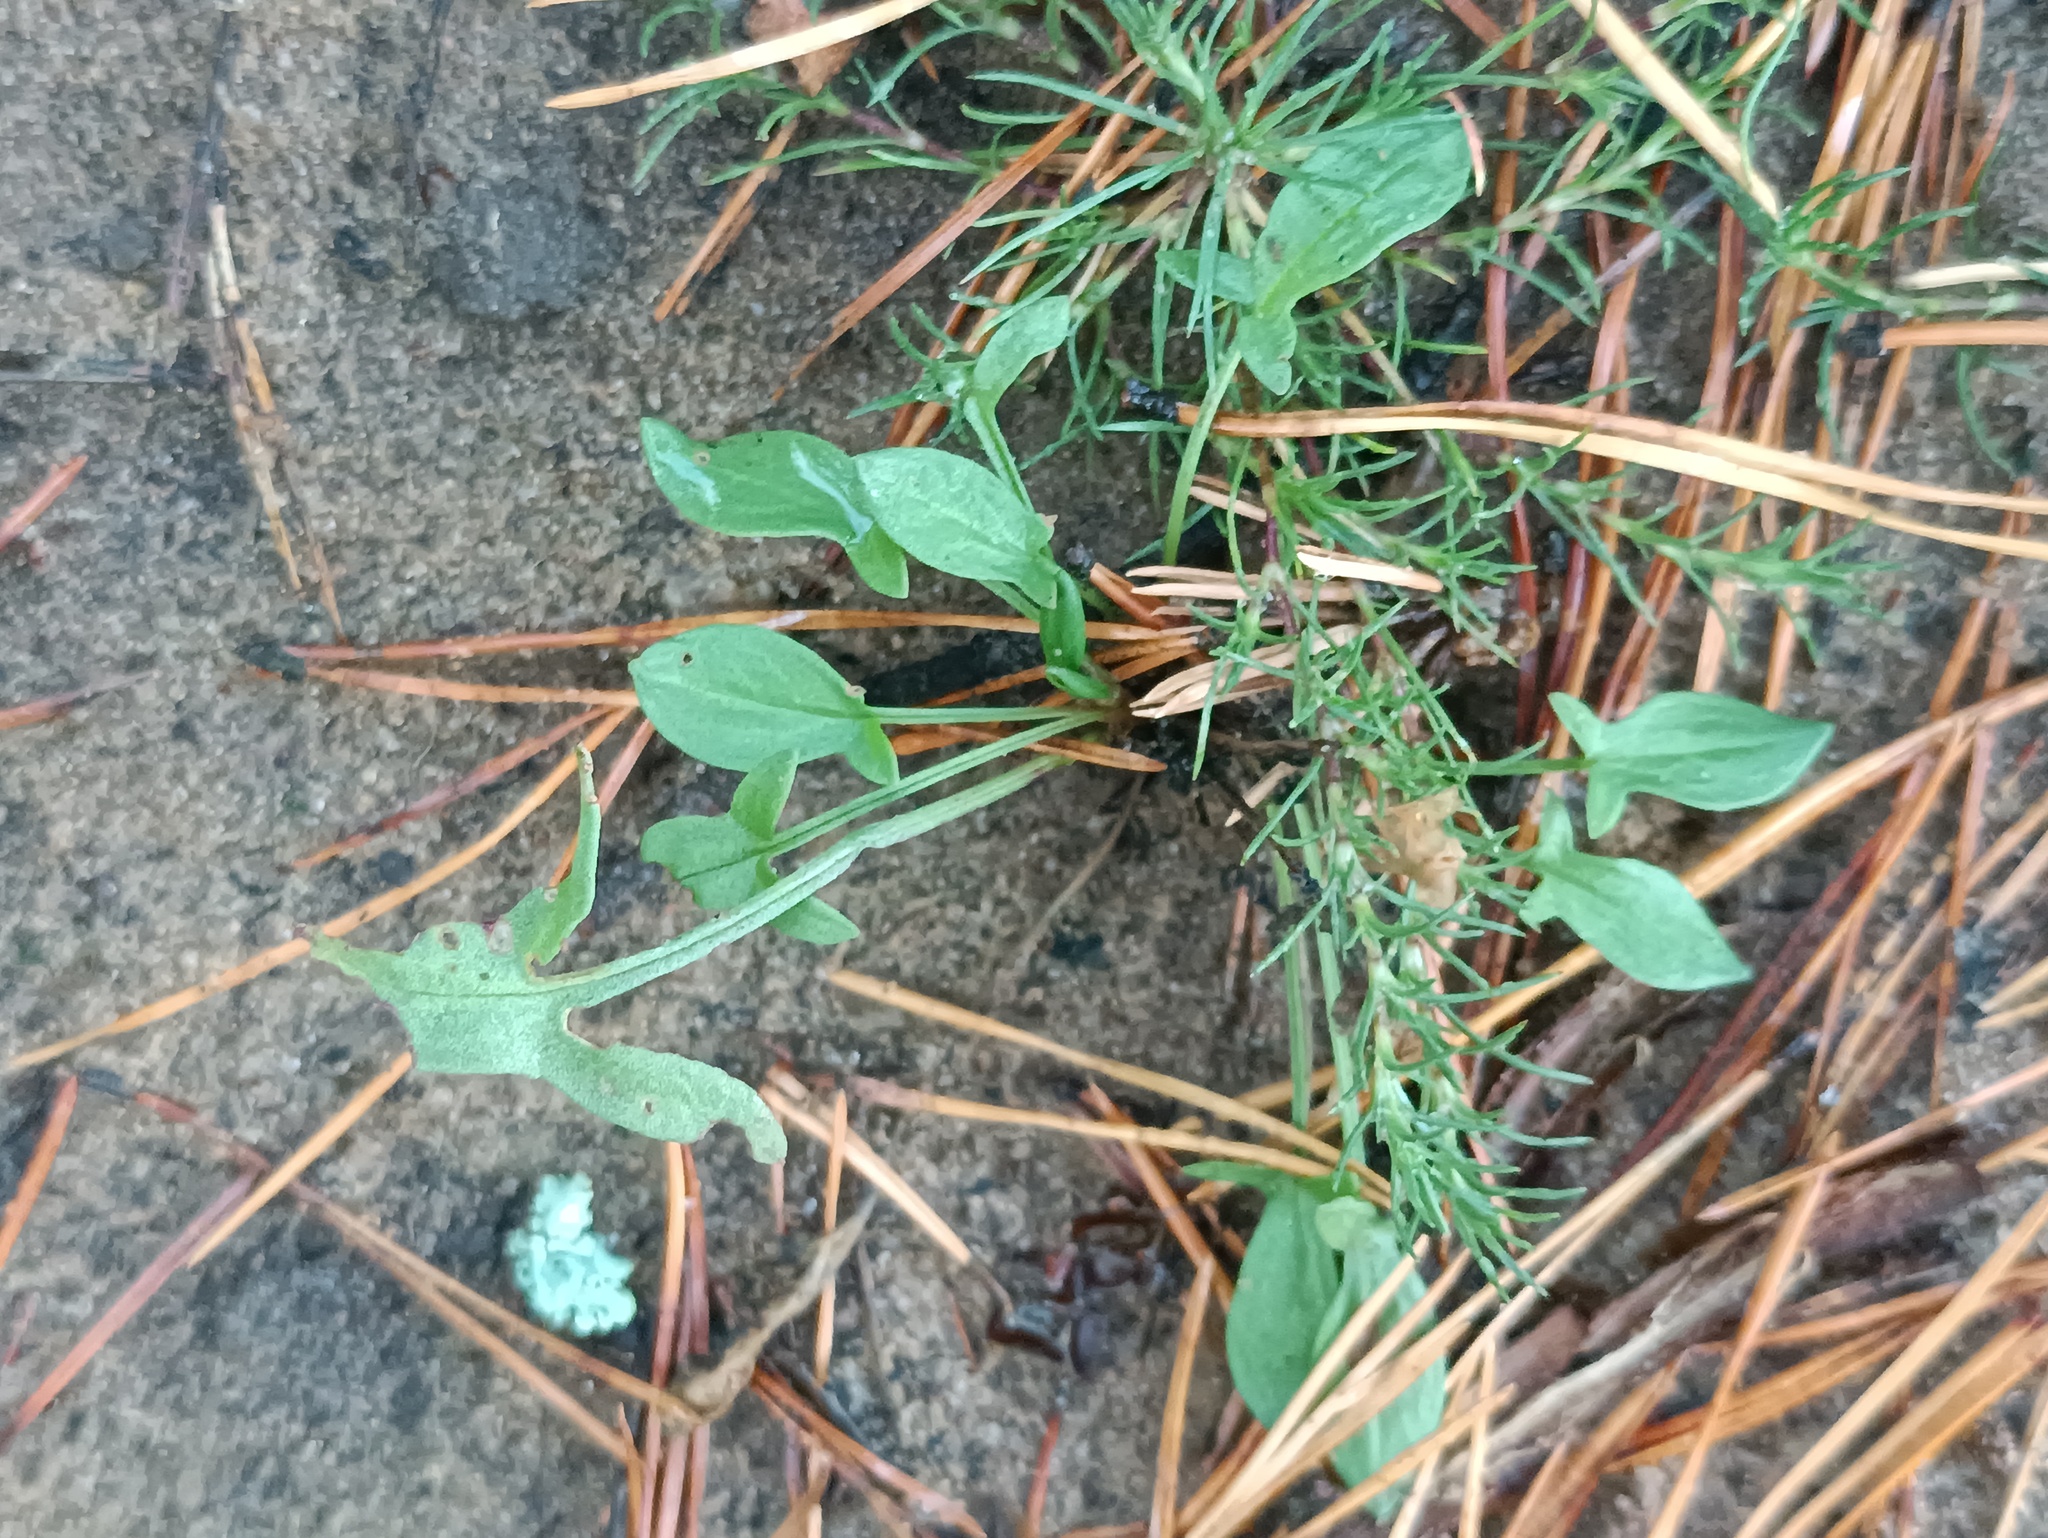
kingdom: Plantae
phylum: Tracheophyta
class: Magnoliopsida
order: Caryophyllales
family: Polygonaceae
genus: Rumex
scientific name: Rumex acetosella
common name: Common sheep sorrel
